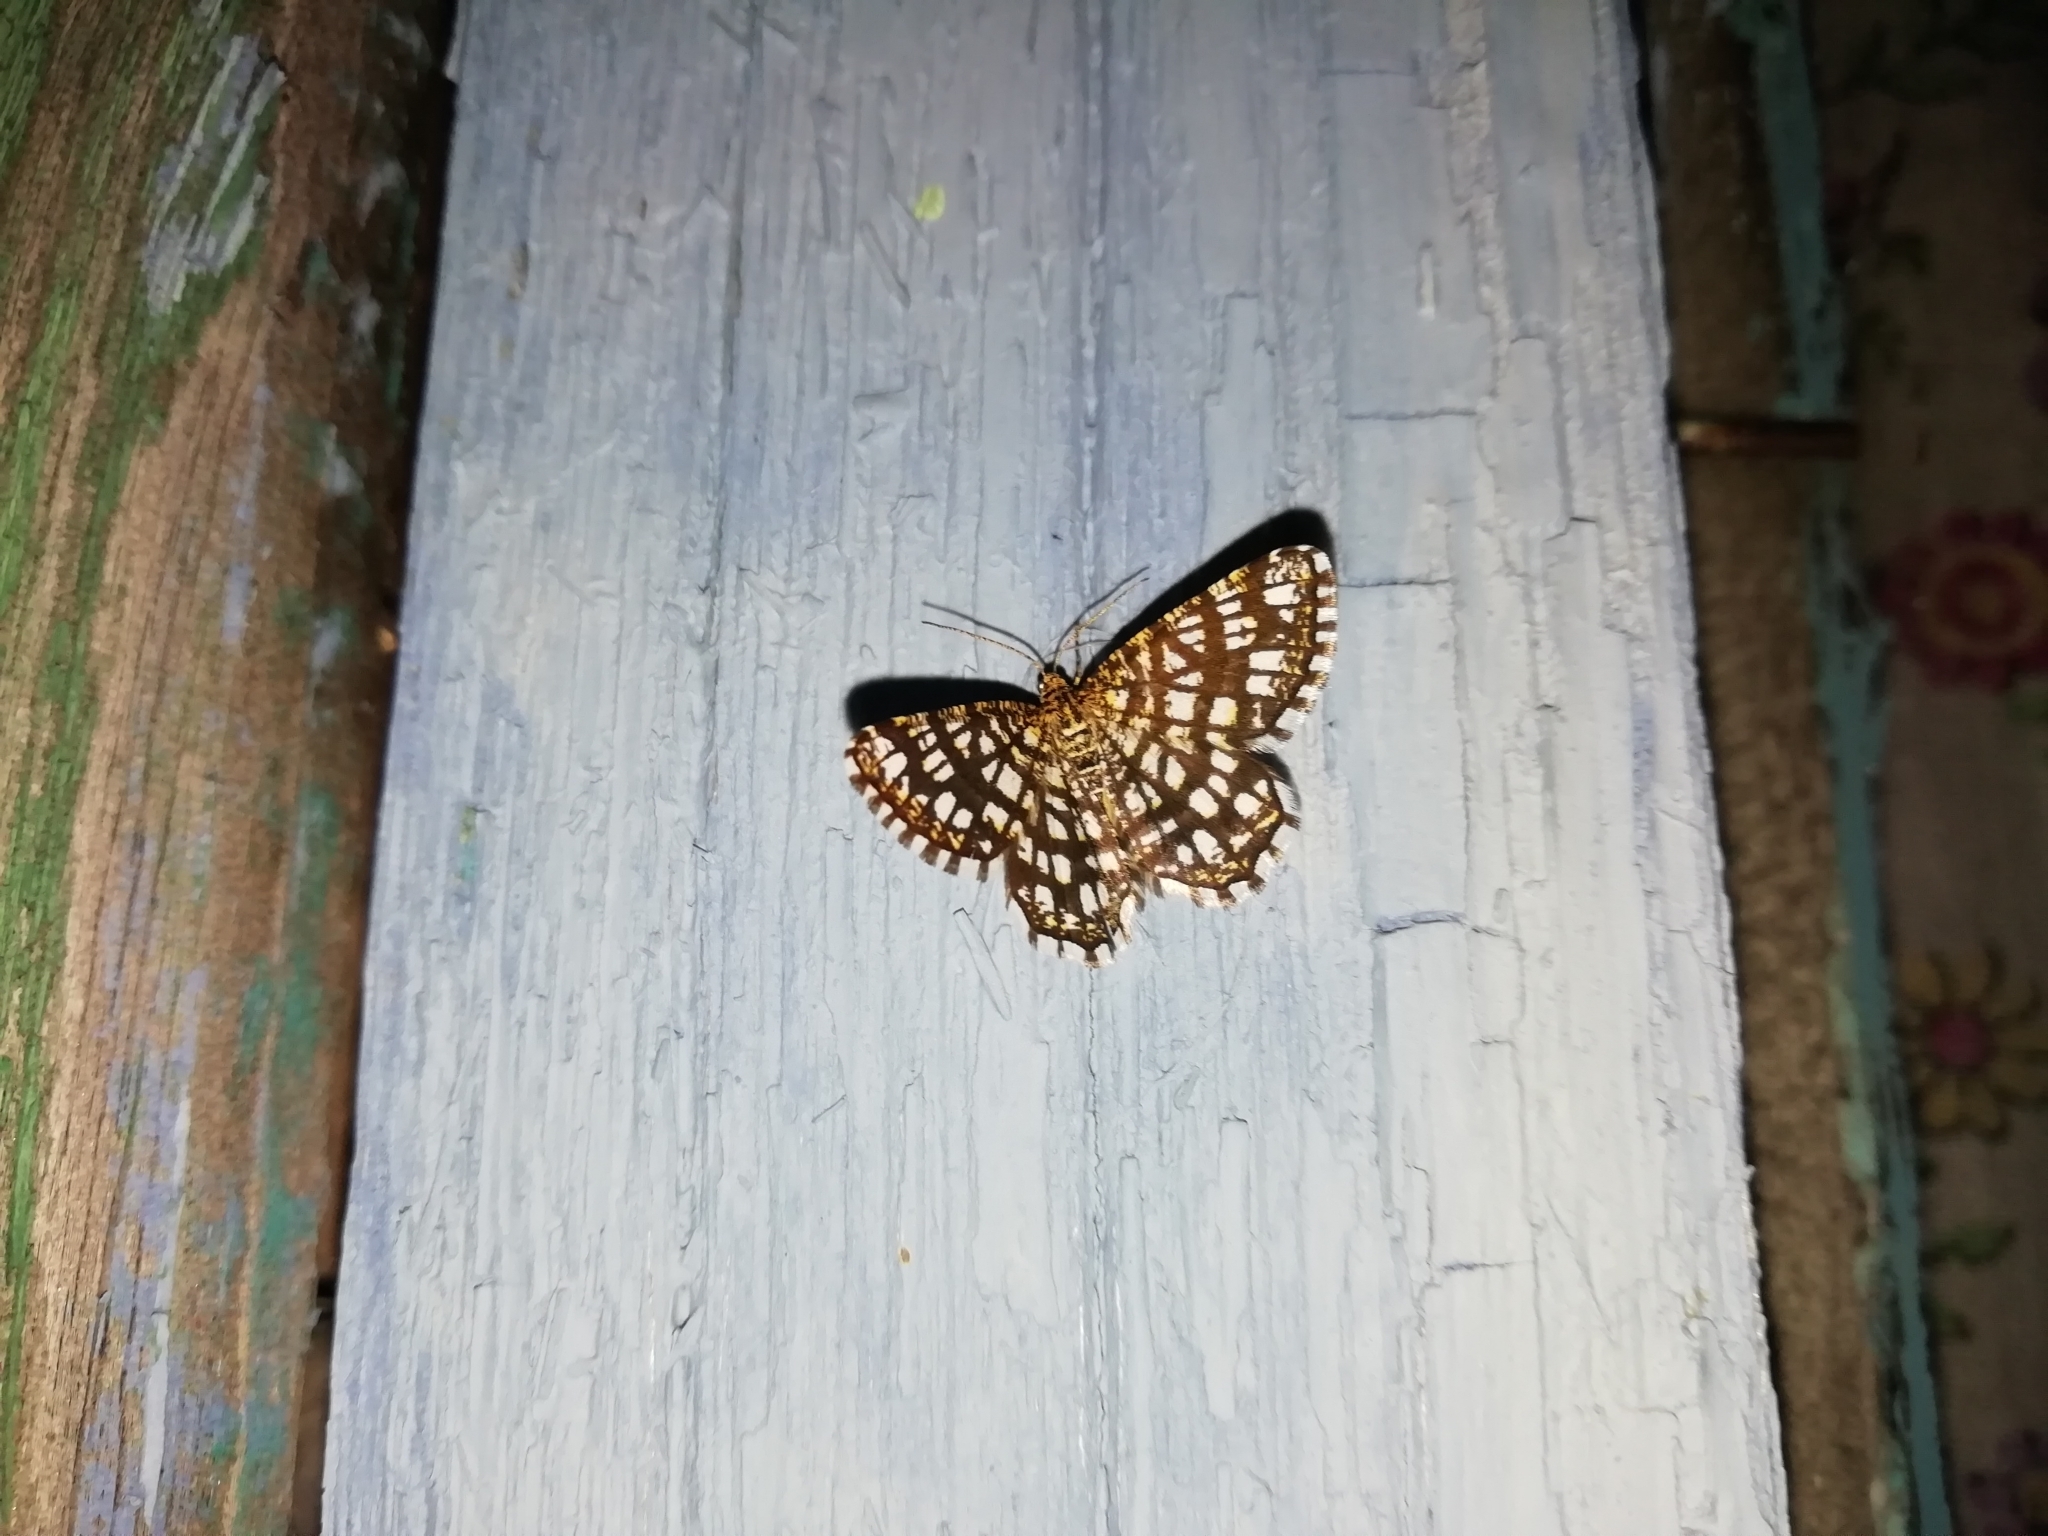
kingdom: Animalia
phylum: Arthropoda
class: Insecta
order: Lepidoptera
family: Geometridae
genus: Chiasmia
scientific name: Chiasmia clathrata
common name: Latticed heath
